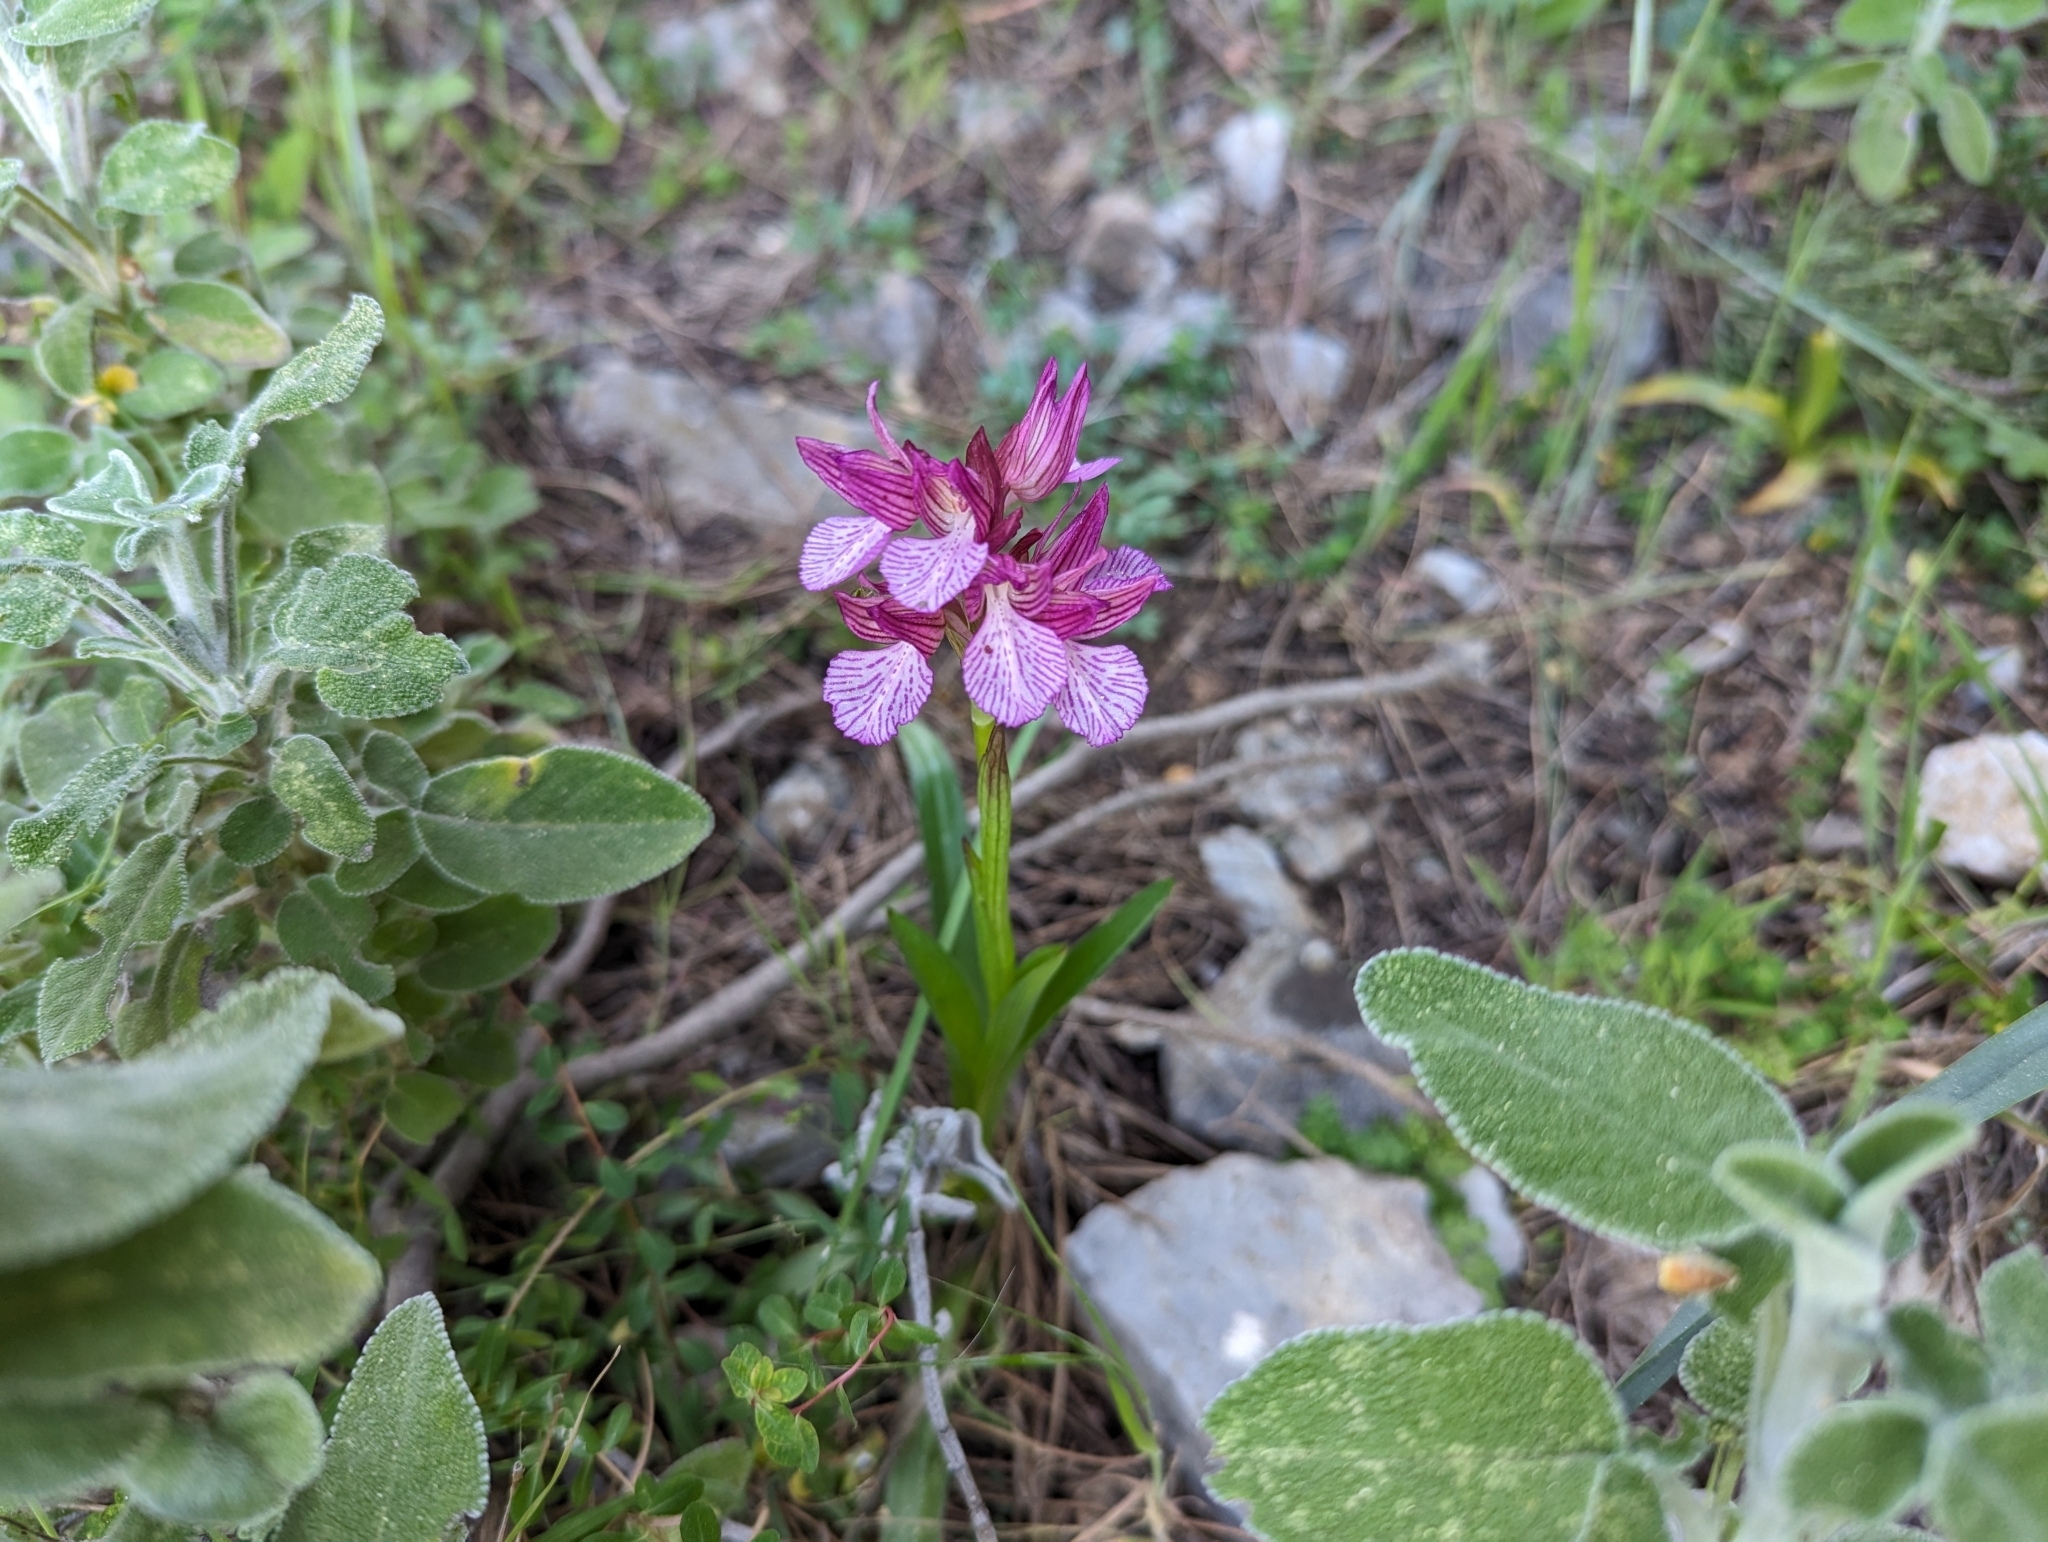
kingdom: Plantae
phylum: Tracheophyta
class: Liliopsida
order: Asparagales
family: Orchidaceae
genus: Anacamptis
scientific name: Anacamptis papilionacea
